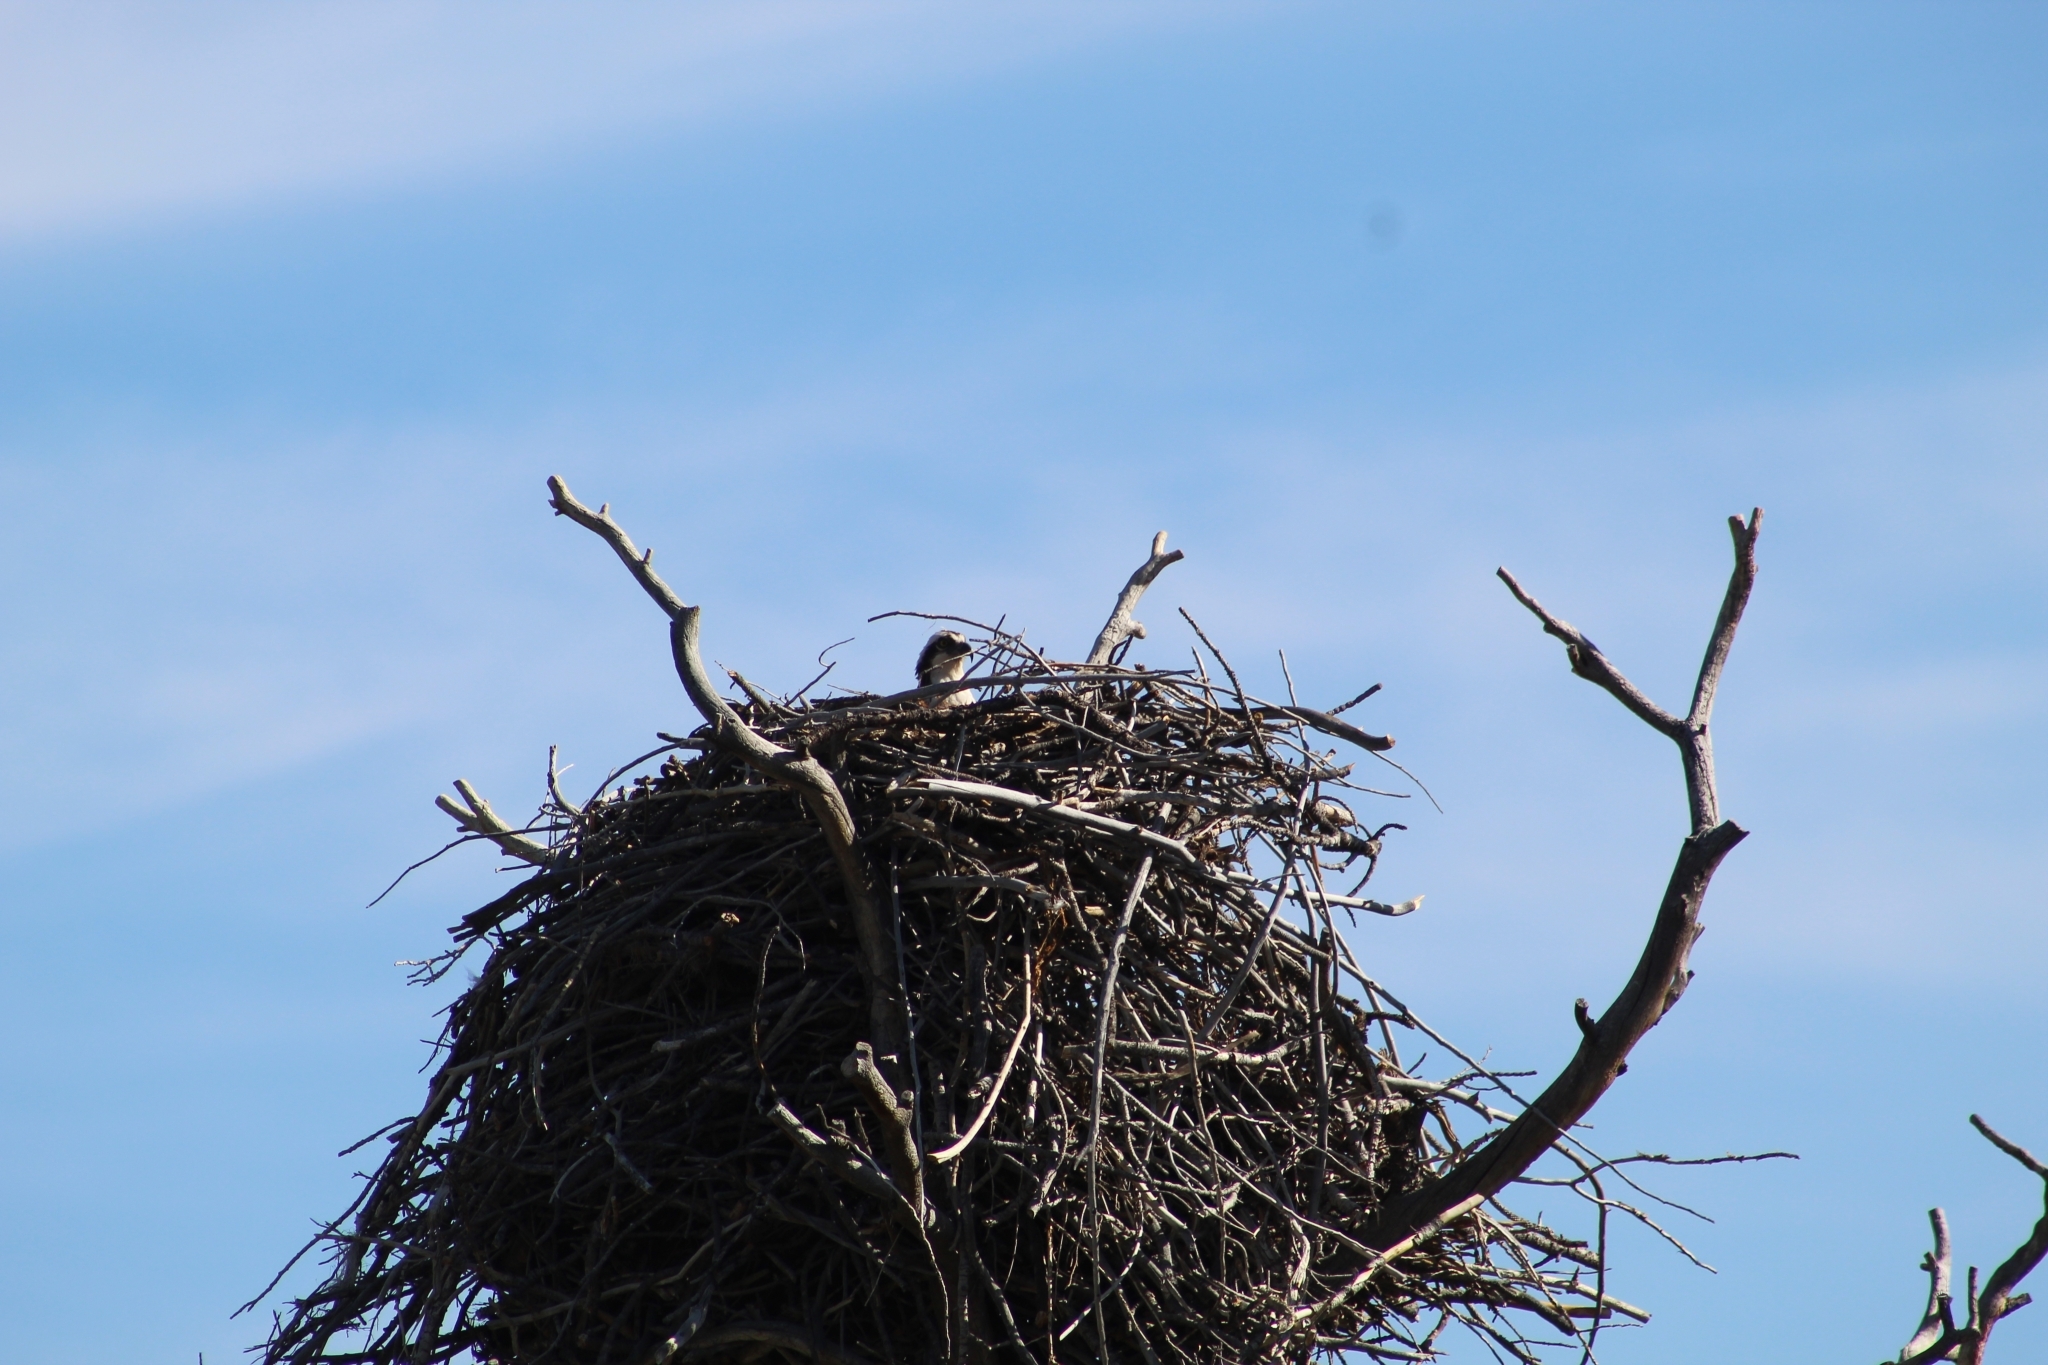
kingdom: Animalia
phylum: Chordata
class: Aves
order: Accipitriformes
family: Pandionidae
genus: Pandion
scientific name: Pandion haliaetus
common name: Osprey
